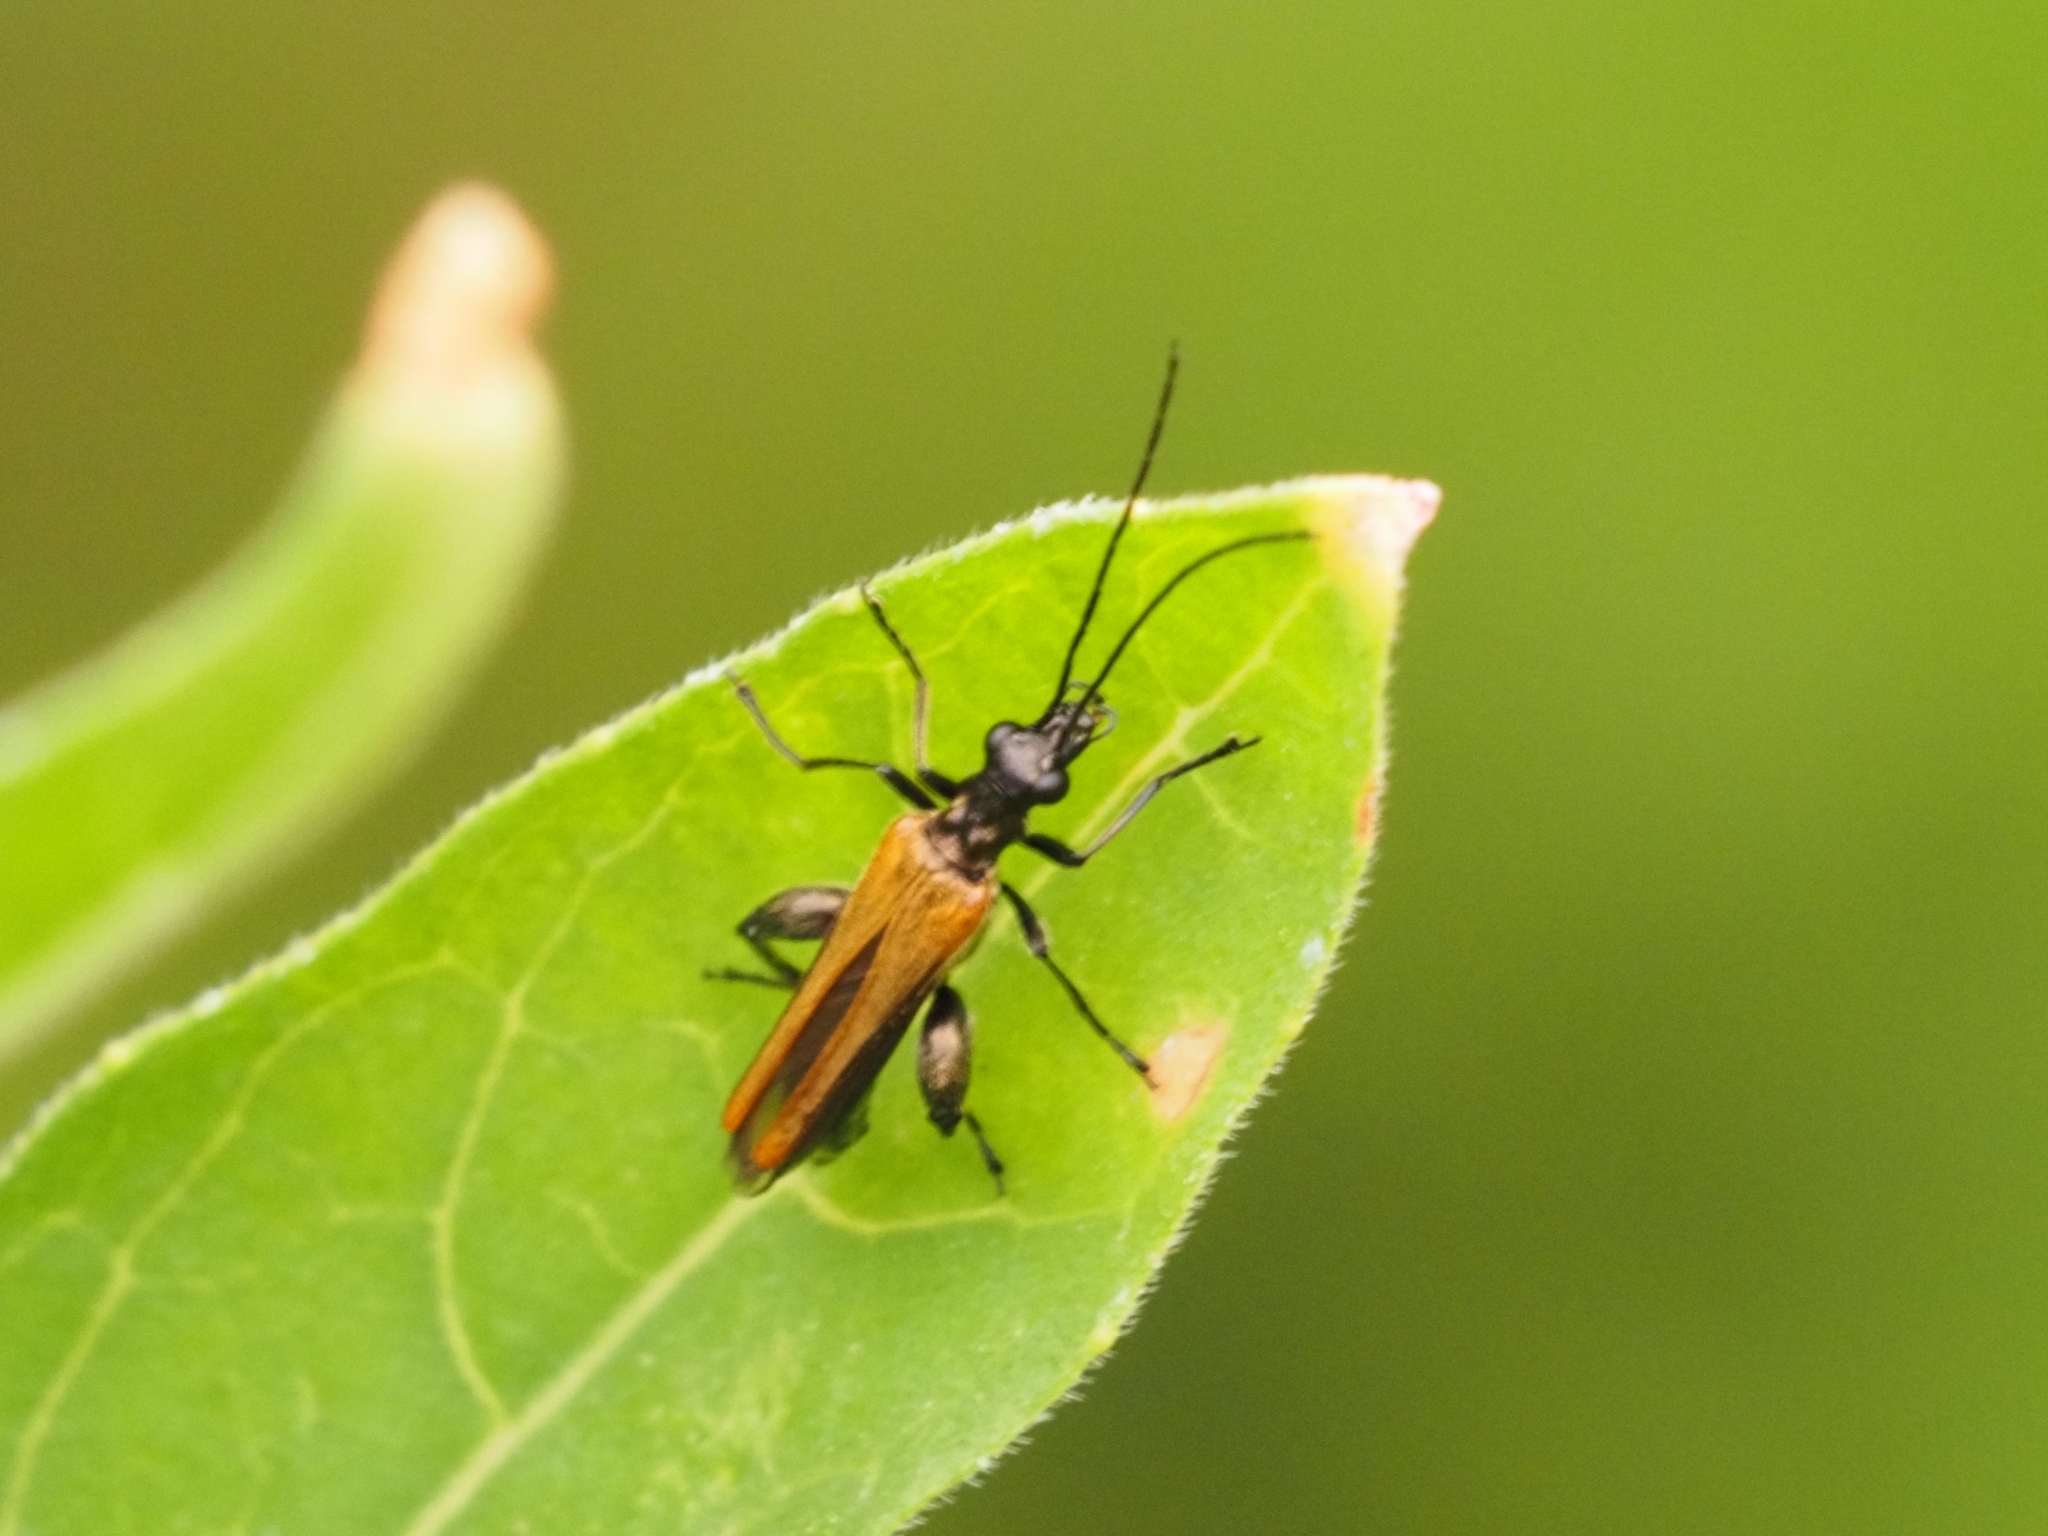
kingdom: Animalia
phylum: Arthropoda
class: Insecta
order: Coleoptera
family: Oedemeridae
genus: Oedemera
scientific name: Oedemera femorata
